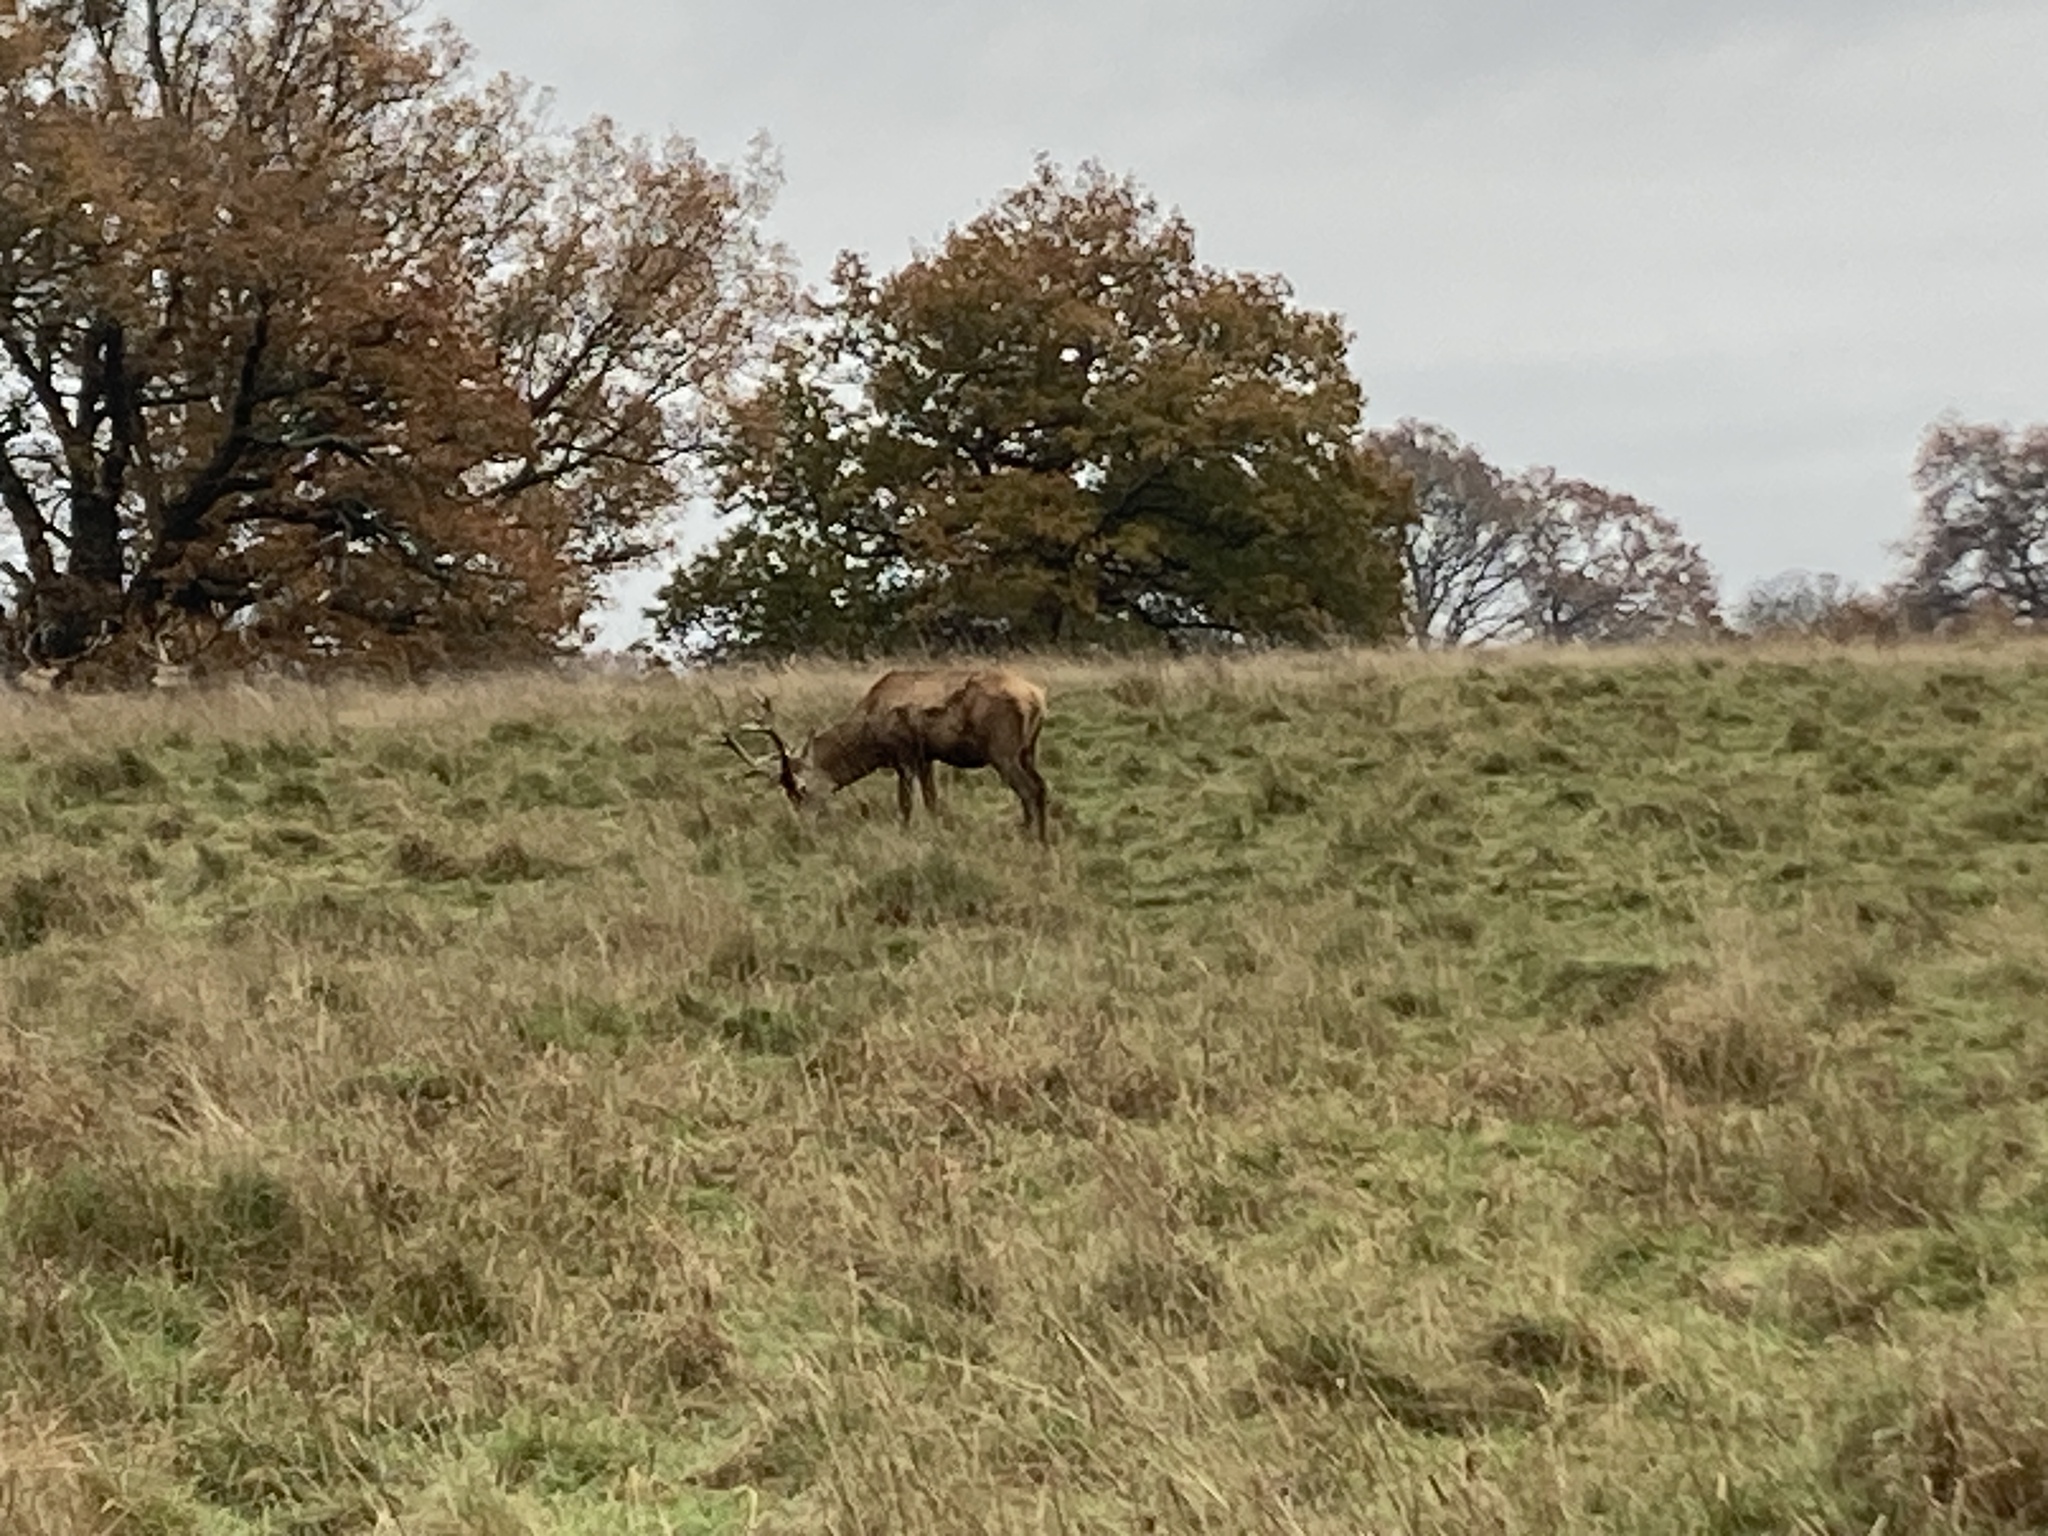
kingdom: Animalia
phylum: Chordata
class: Mammalia
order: Artiodactyla
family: Cervidae
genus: Cervus
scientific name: Cervus elaphus
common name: Red deer
